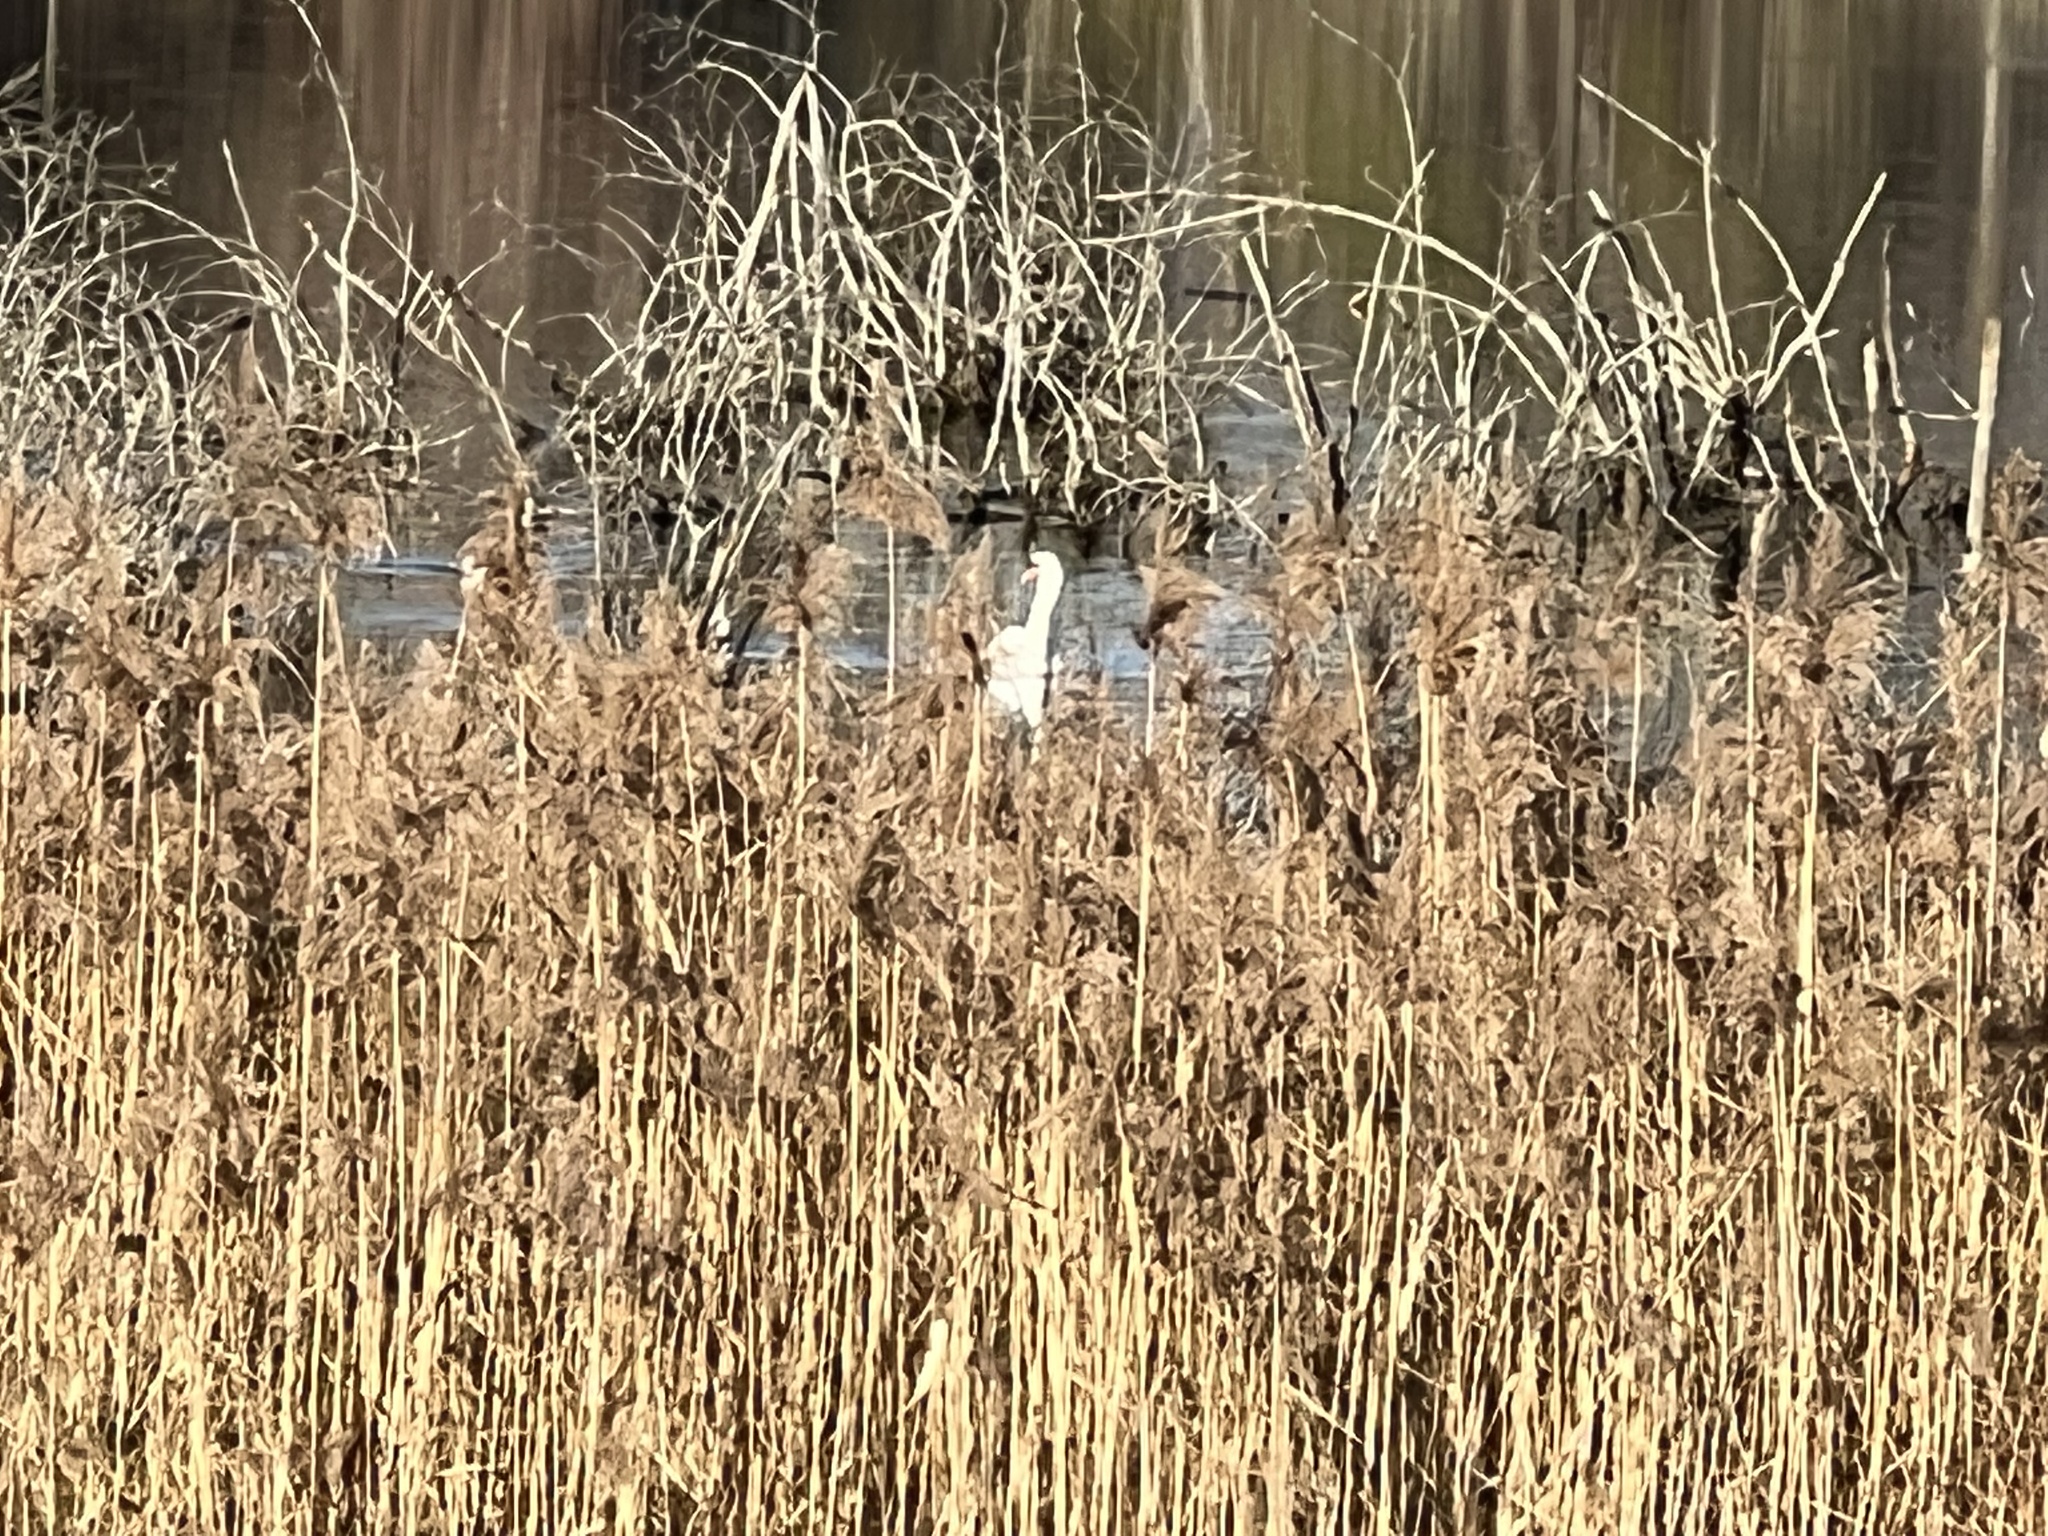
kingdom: Animalia
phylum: Chordata
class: Aves
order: Anseriformes
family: Anatidae
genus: Cygnus
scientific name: Cygnus olor
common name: Mute swan
